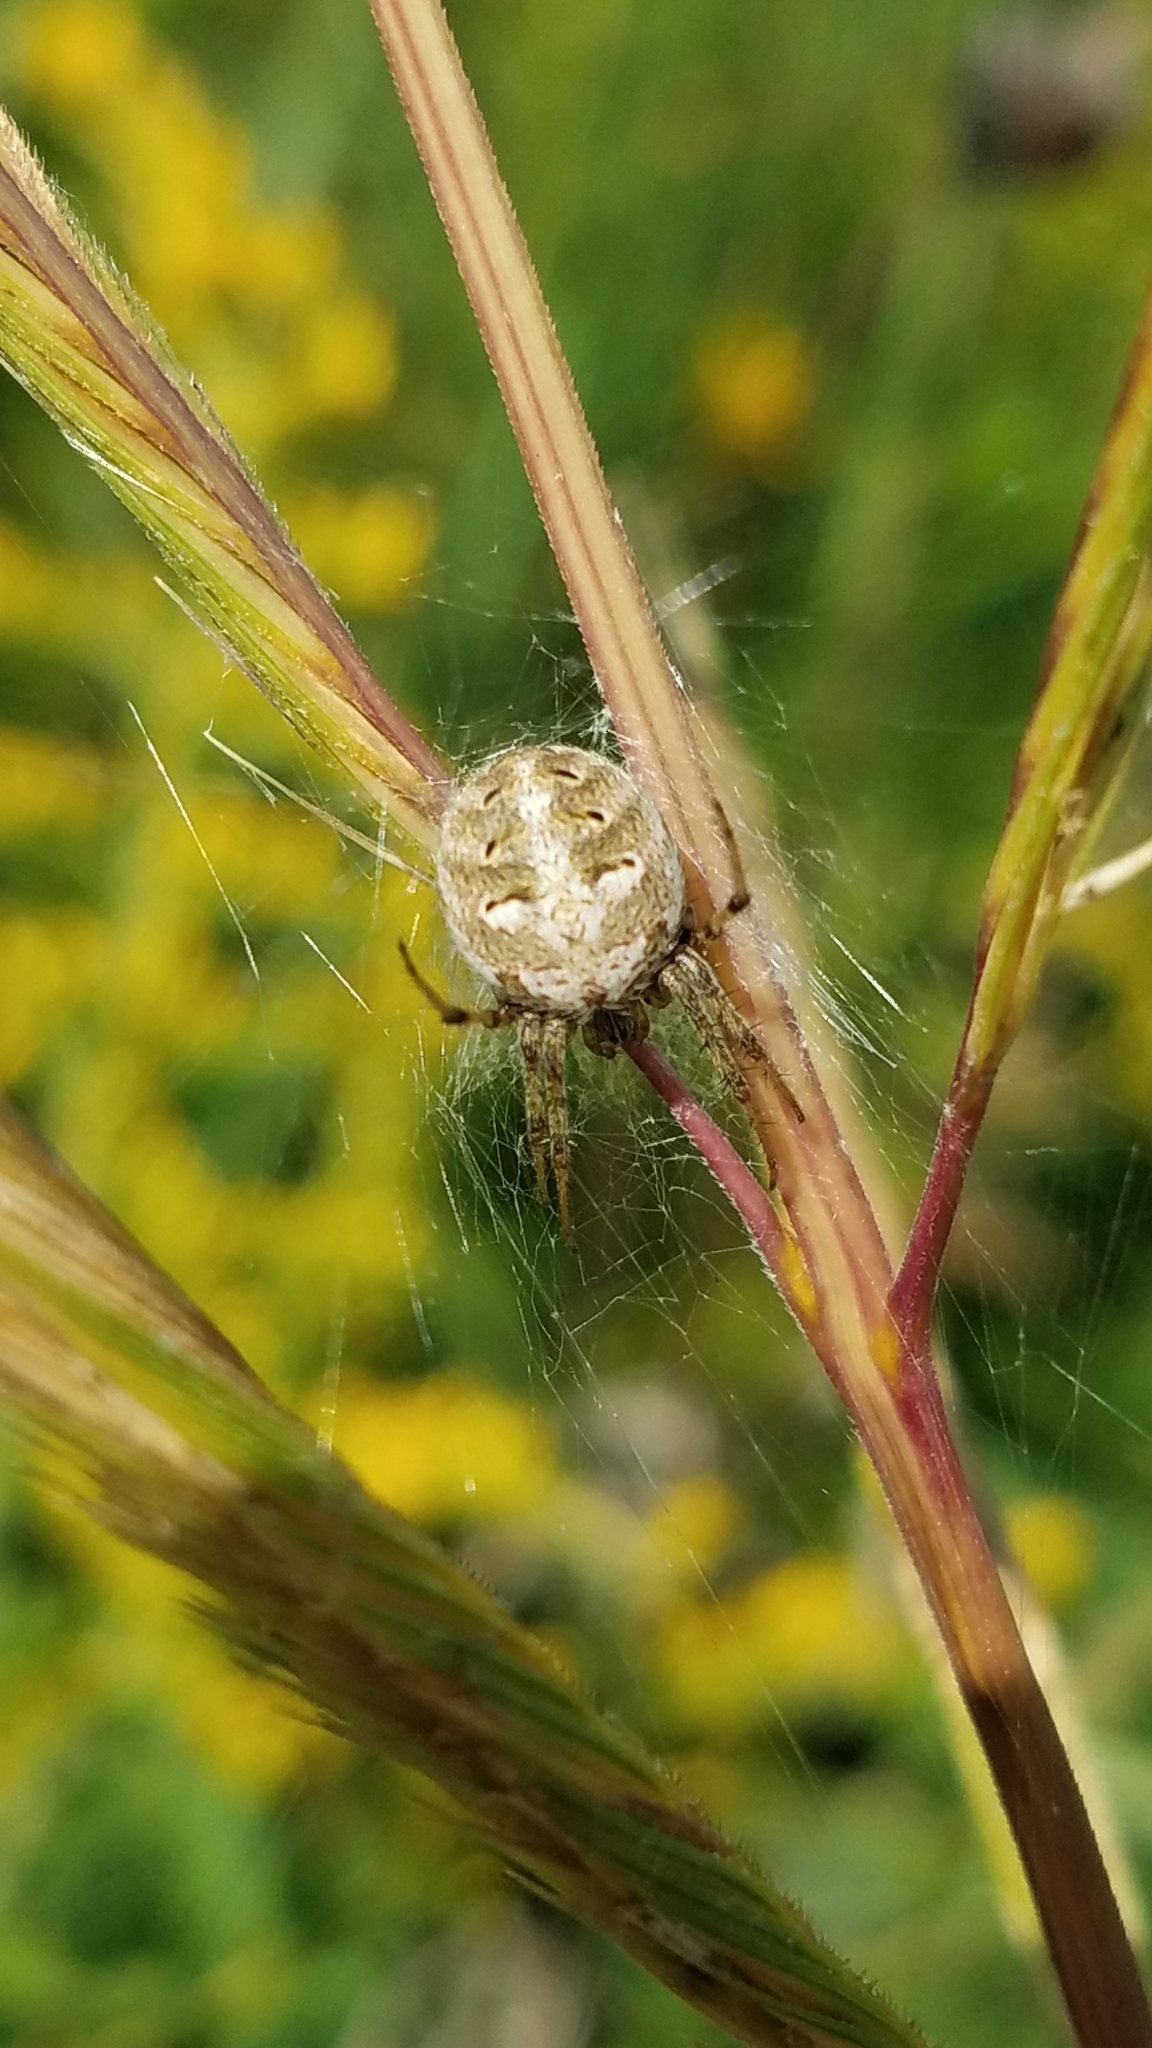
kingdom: Animalia
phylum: Arthropoda
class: Arachnida
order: Araneae
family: Araneidae
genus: Neoscona
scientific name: Neoscona arabesca
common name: Orb weavers
